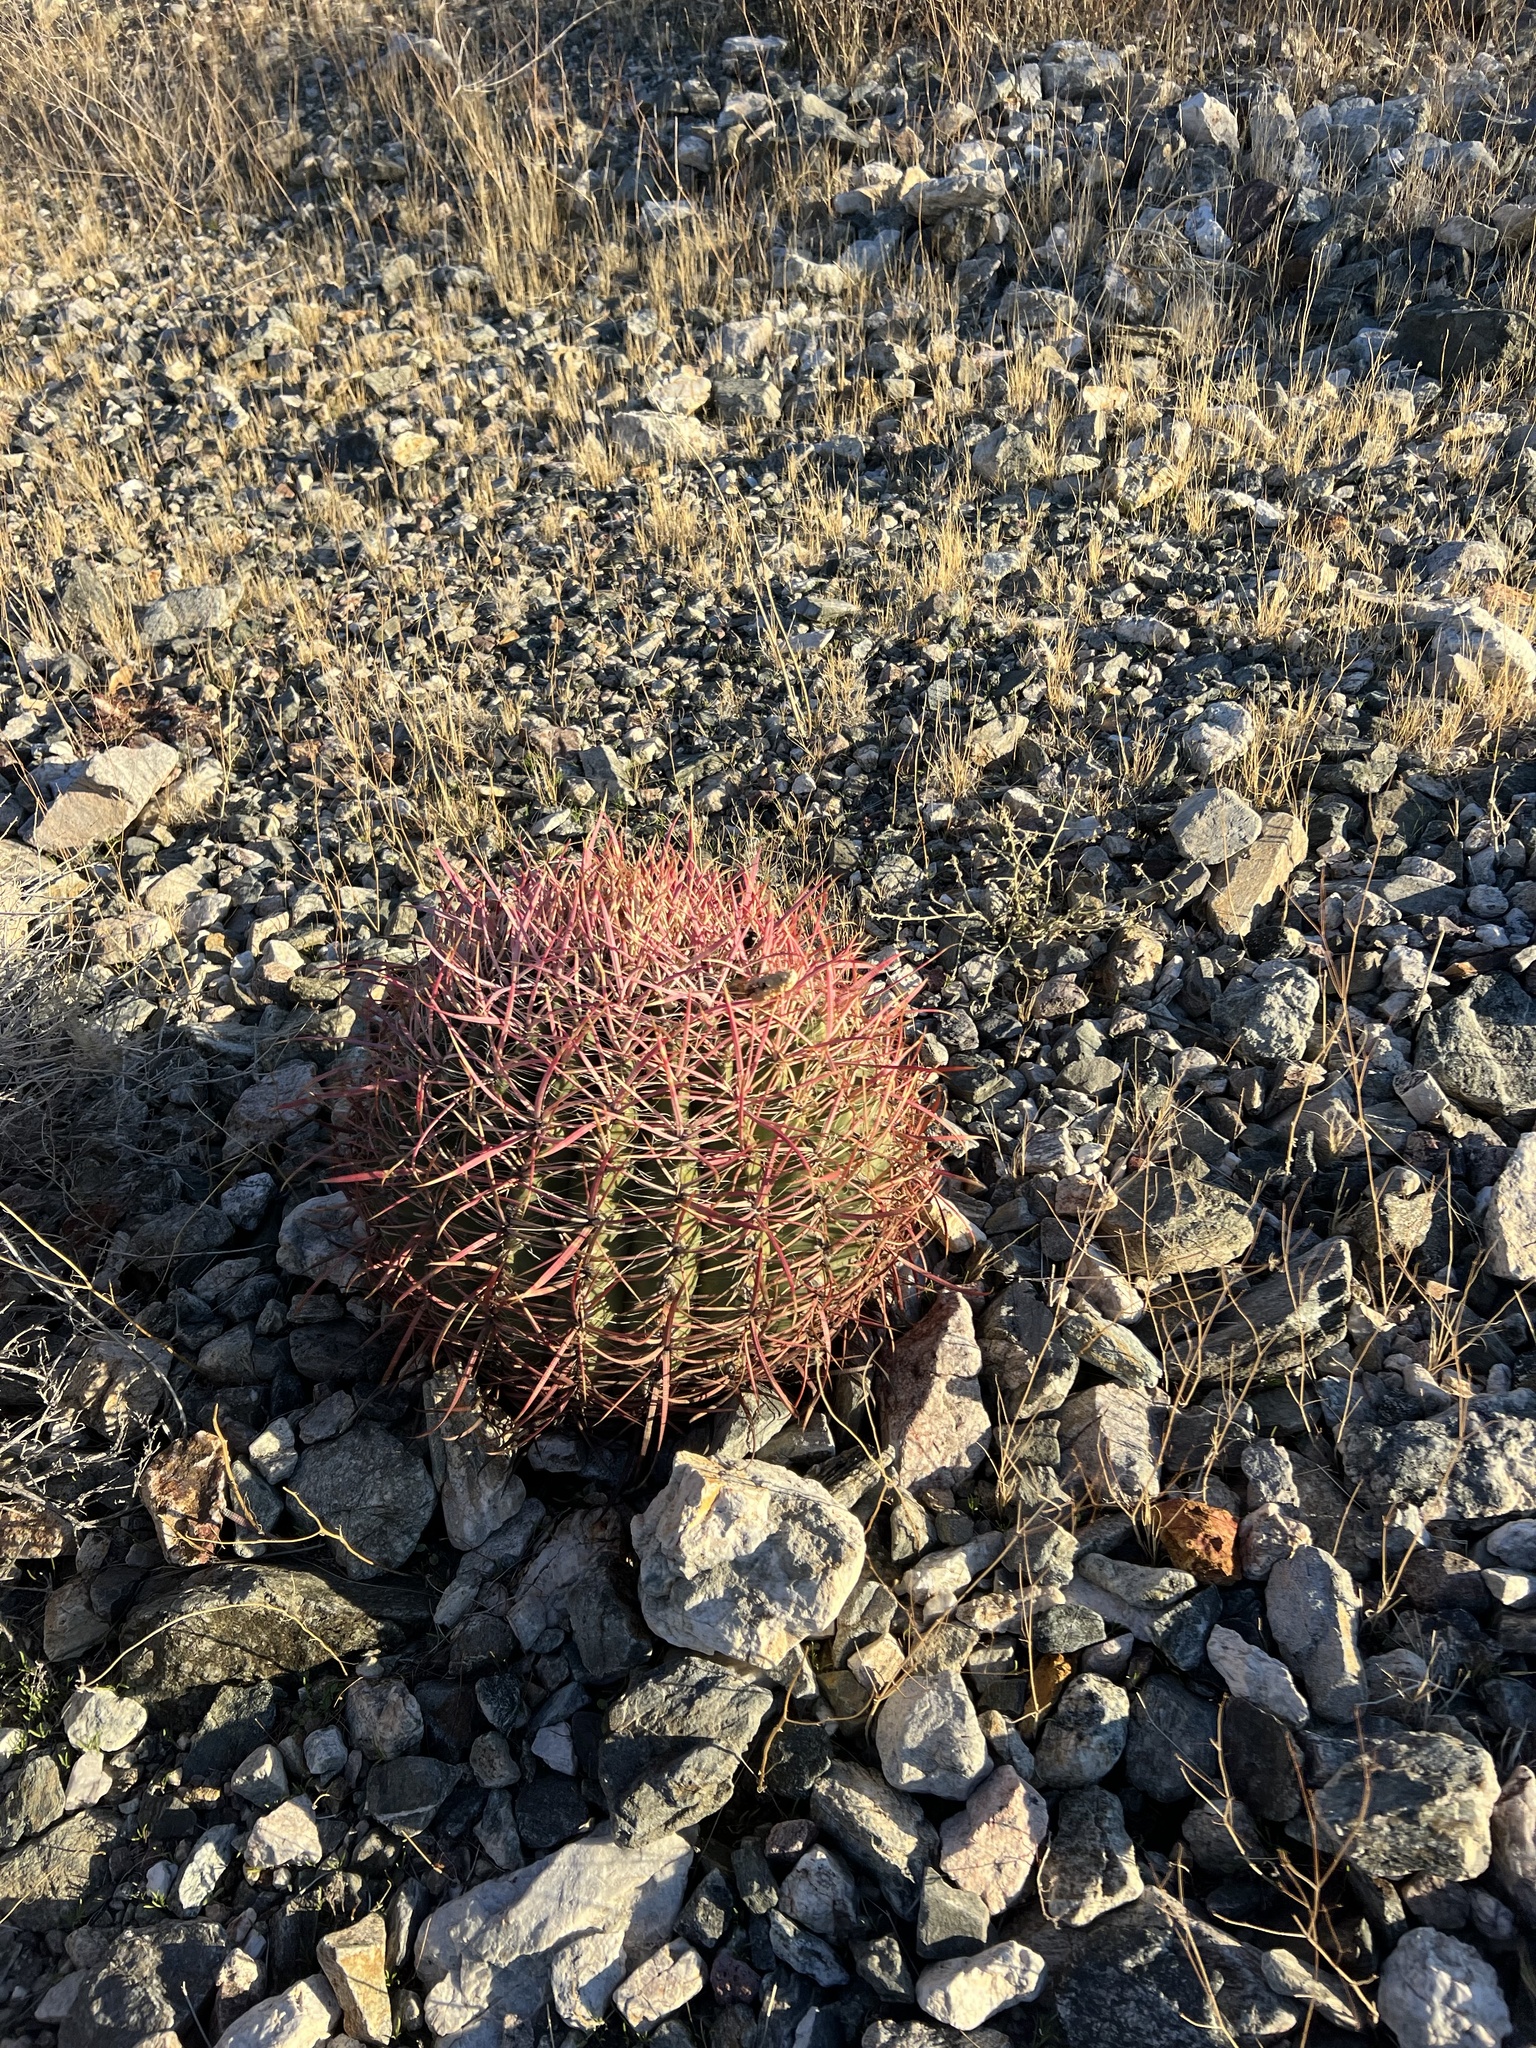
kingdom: Plantae
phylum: Tracheophyta
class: Magnoliopsida
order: Caryophyllales
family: Cactaceae
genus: Ferocactus
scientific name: Ferocactus cylindraceus
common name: California barrel cactus
